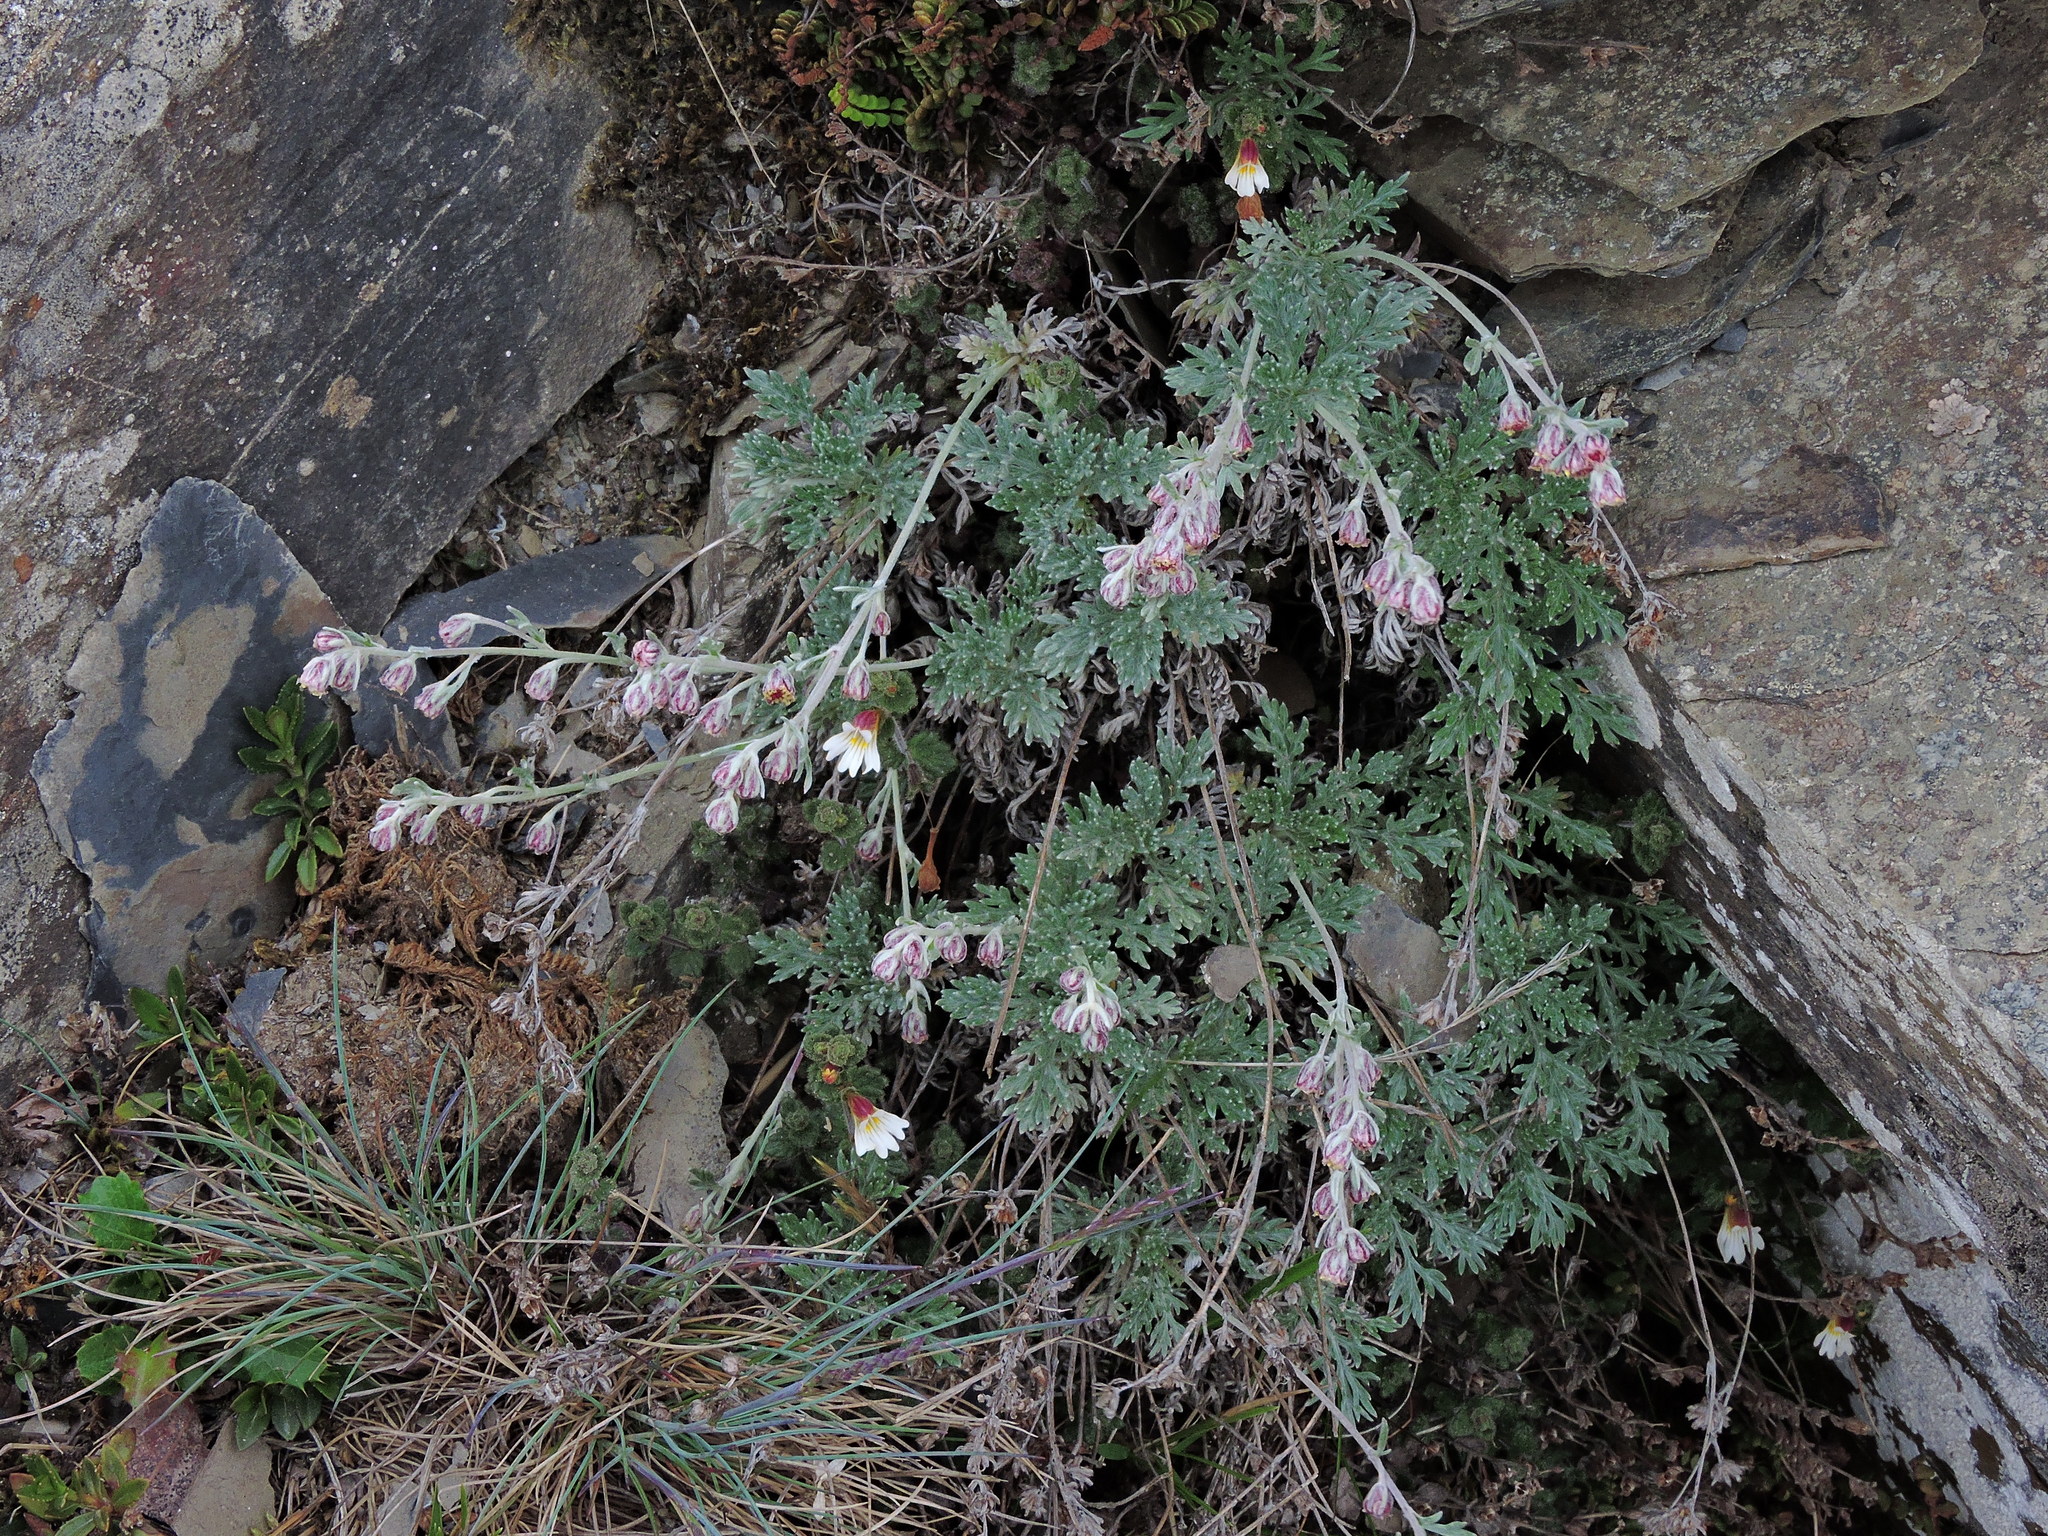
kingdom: Plantae
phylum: Tracheophyta
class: Magnoliopsida
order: Asterales
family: Asteraceae
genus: Artemisia
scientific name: Artemisia kawakamii
